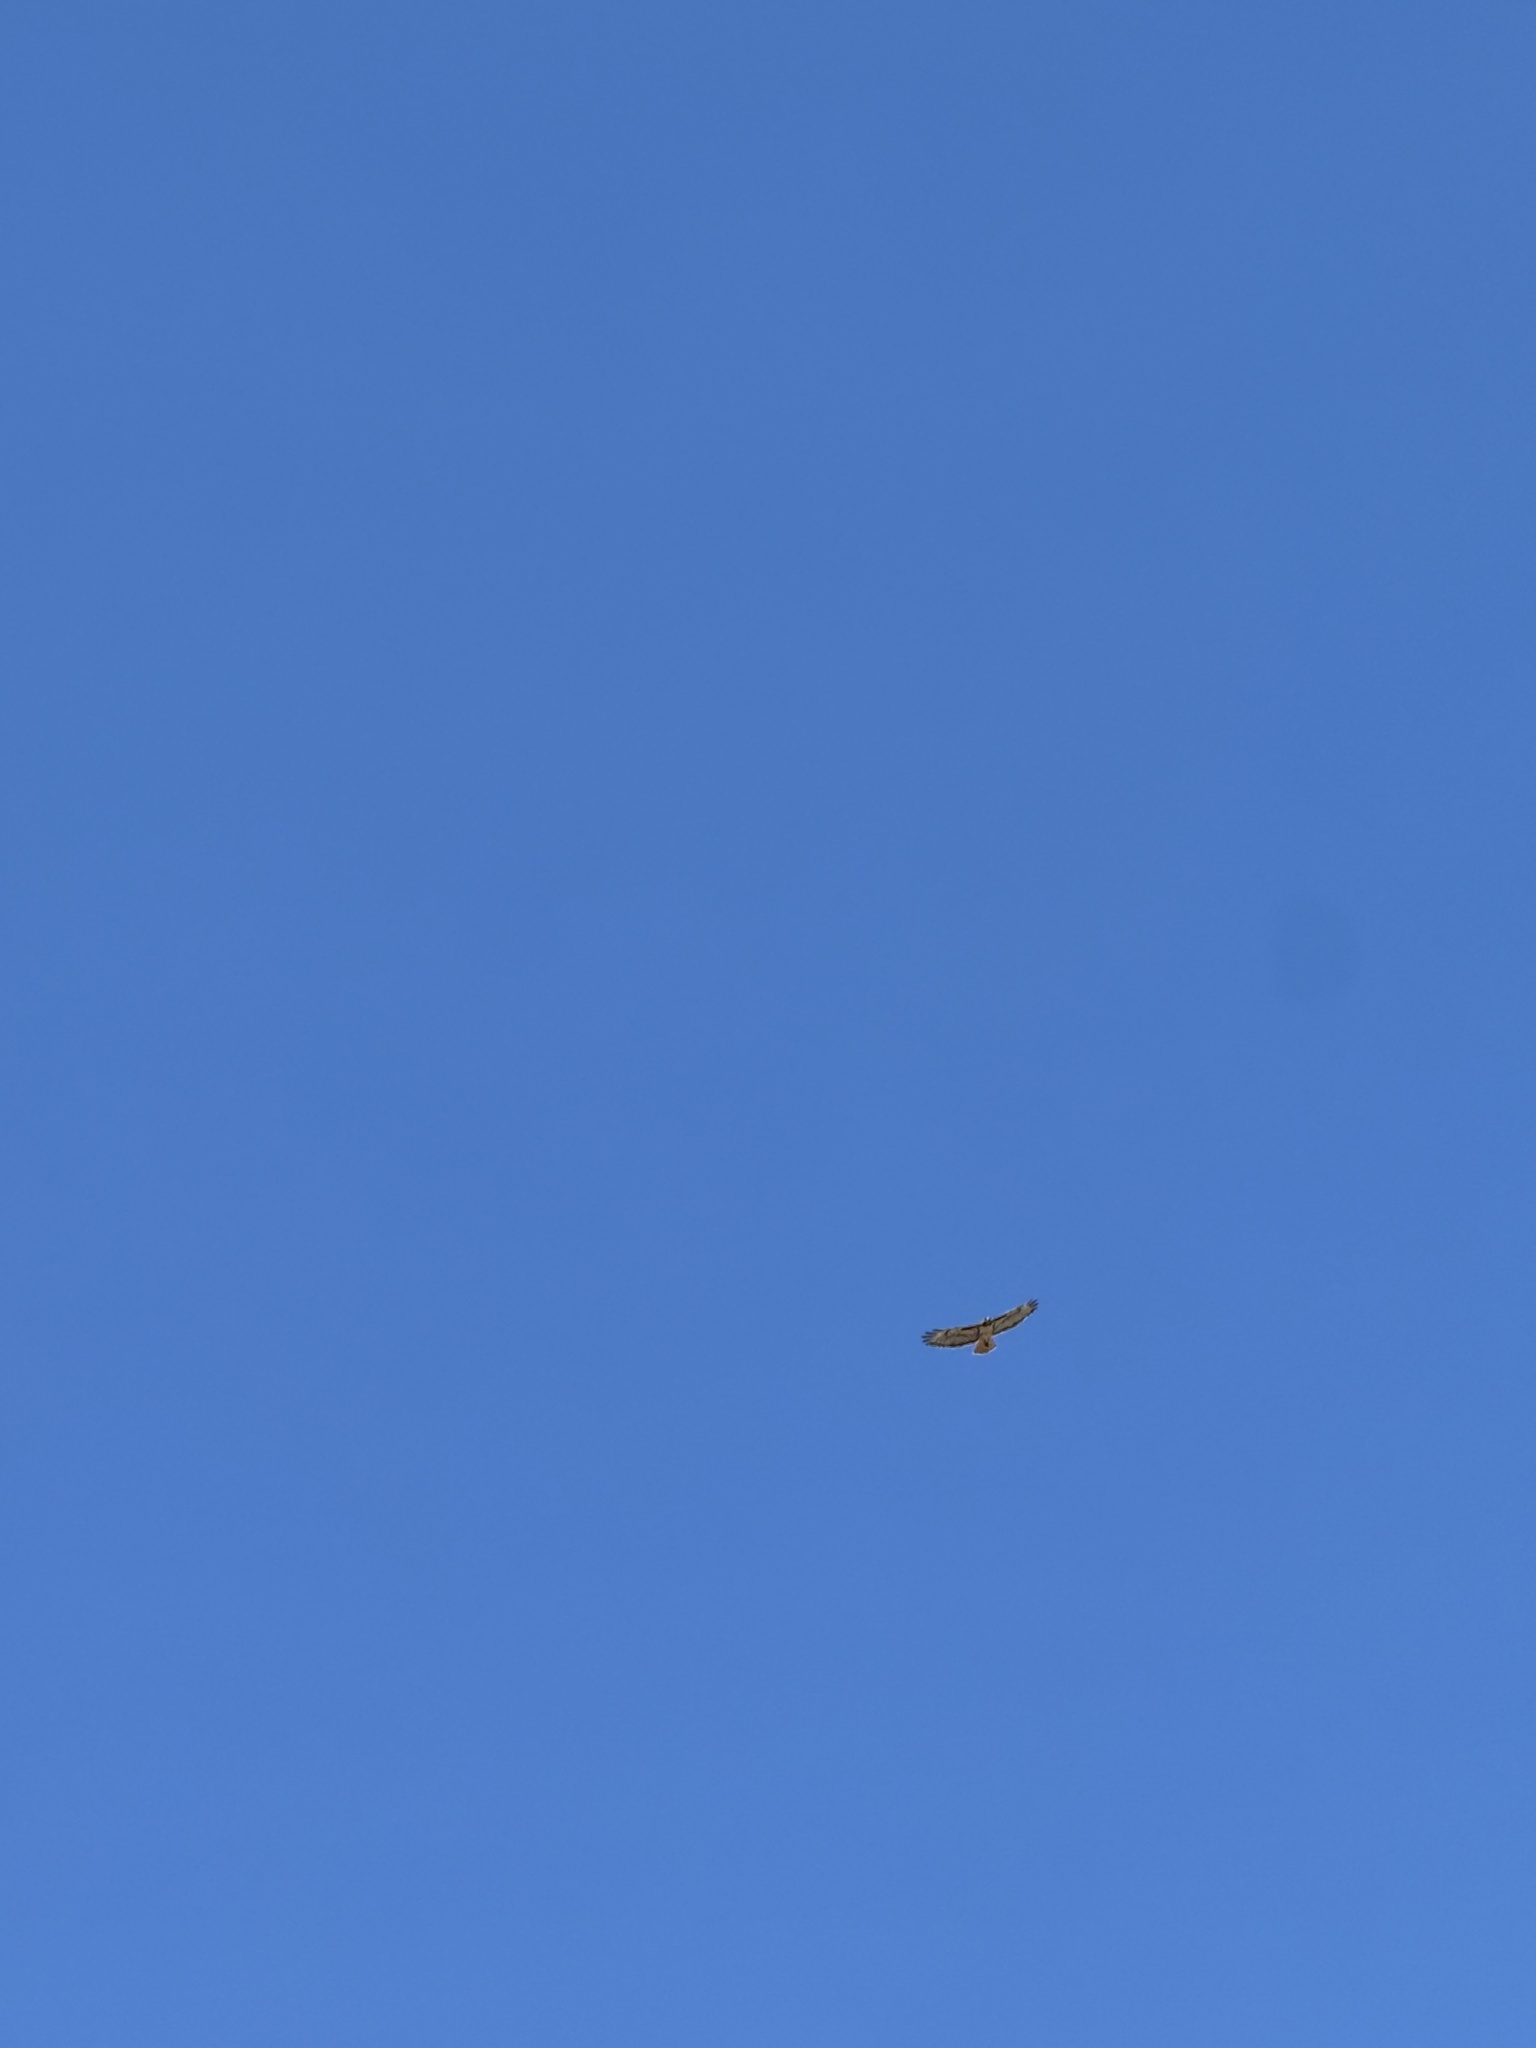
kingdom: Animalia
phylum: Chordata
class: Aves
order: Accipitriformes
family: Accipitridae
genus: Buteo
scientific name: Buteo jamaicensis
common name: Red-tailed hawk
